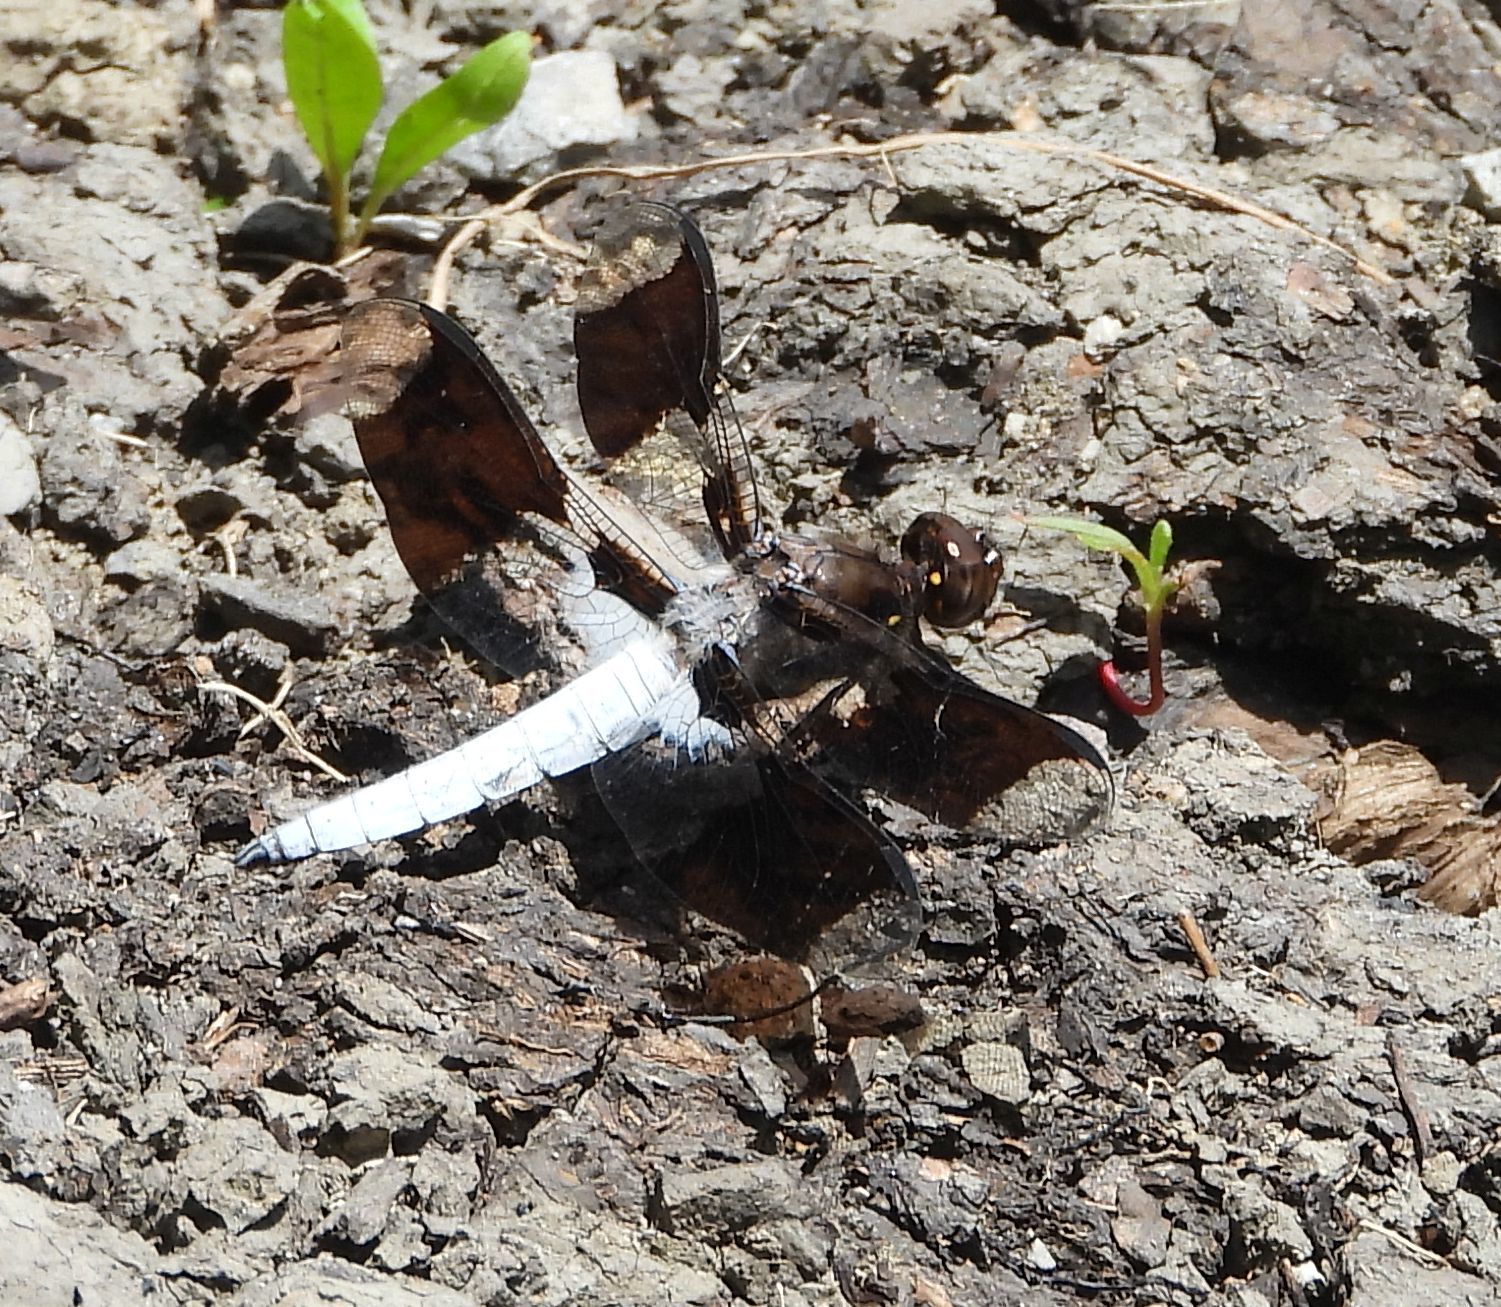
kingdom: Animalia
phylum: Arthropoda
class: Insecta
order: Odonata
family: Libellulidae
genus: Plathemis
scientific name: Plathemis lydia
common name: Common whitetail
